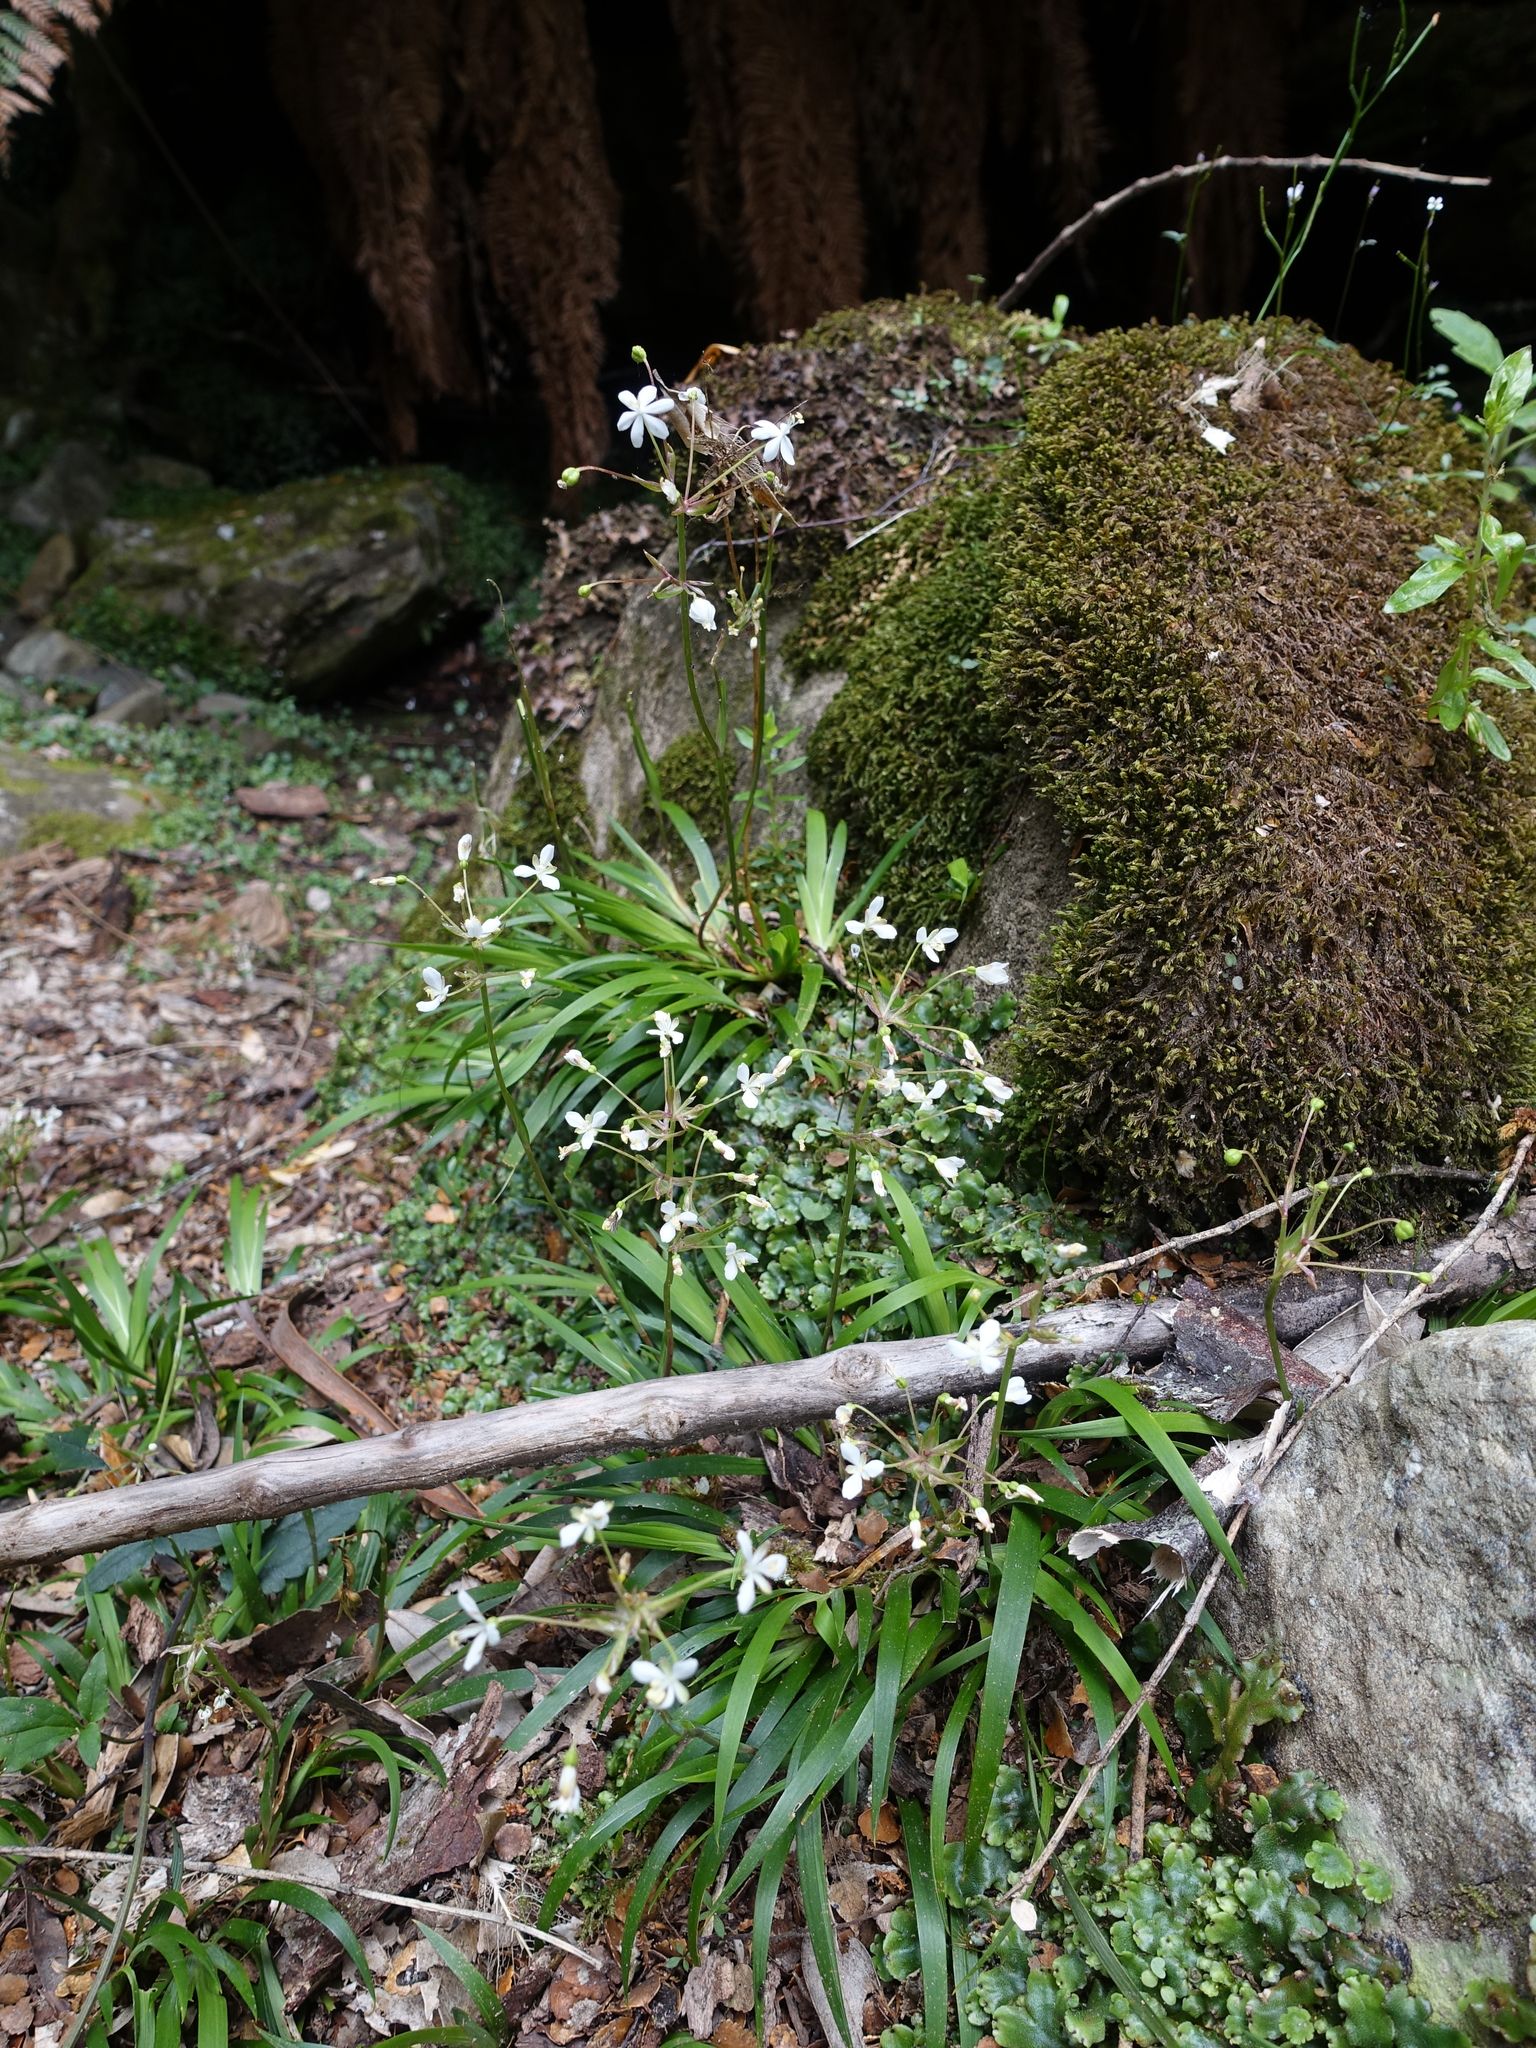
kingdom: Plantae
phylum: Tracheophyta
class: Liliopsida
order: Asparagales
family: Iridaceae
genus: Libertia
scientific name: Libertia pulchella
